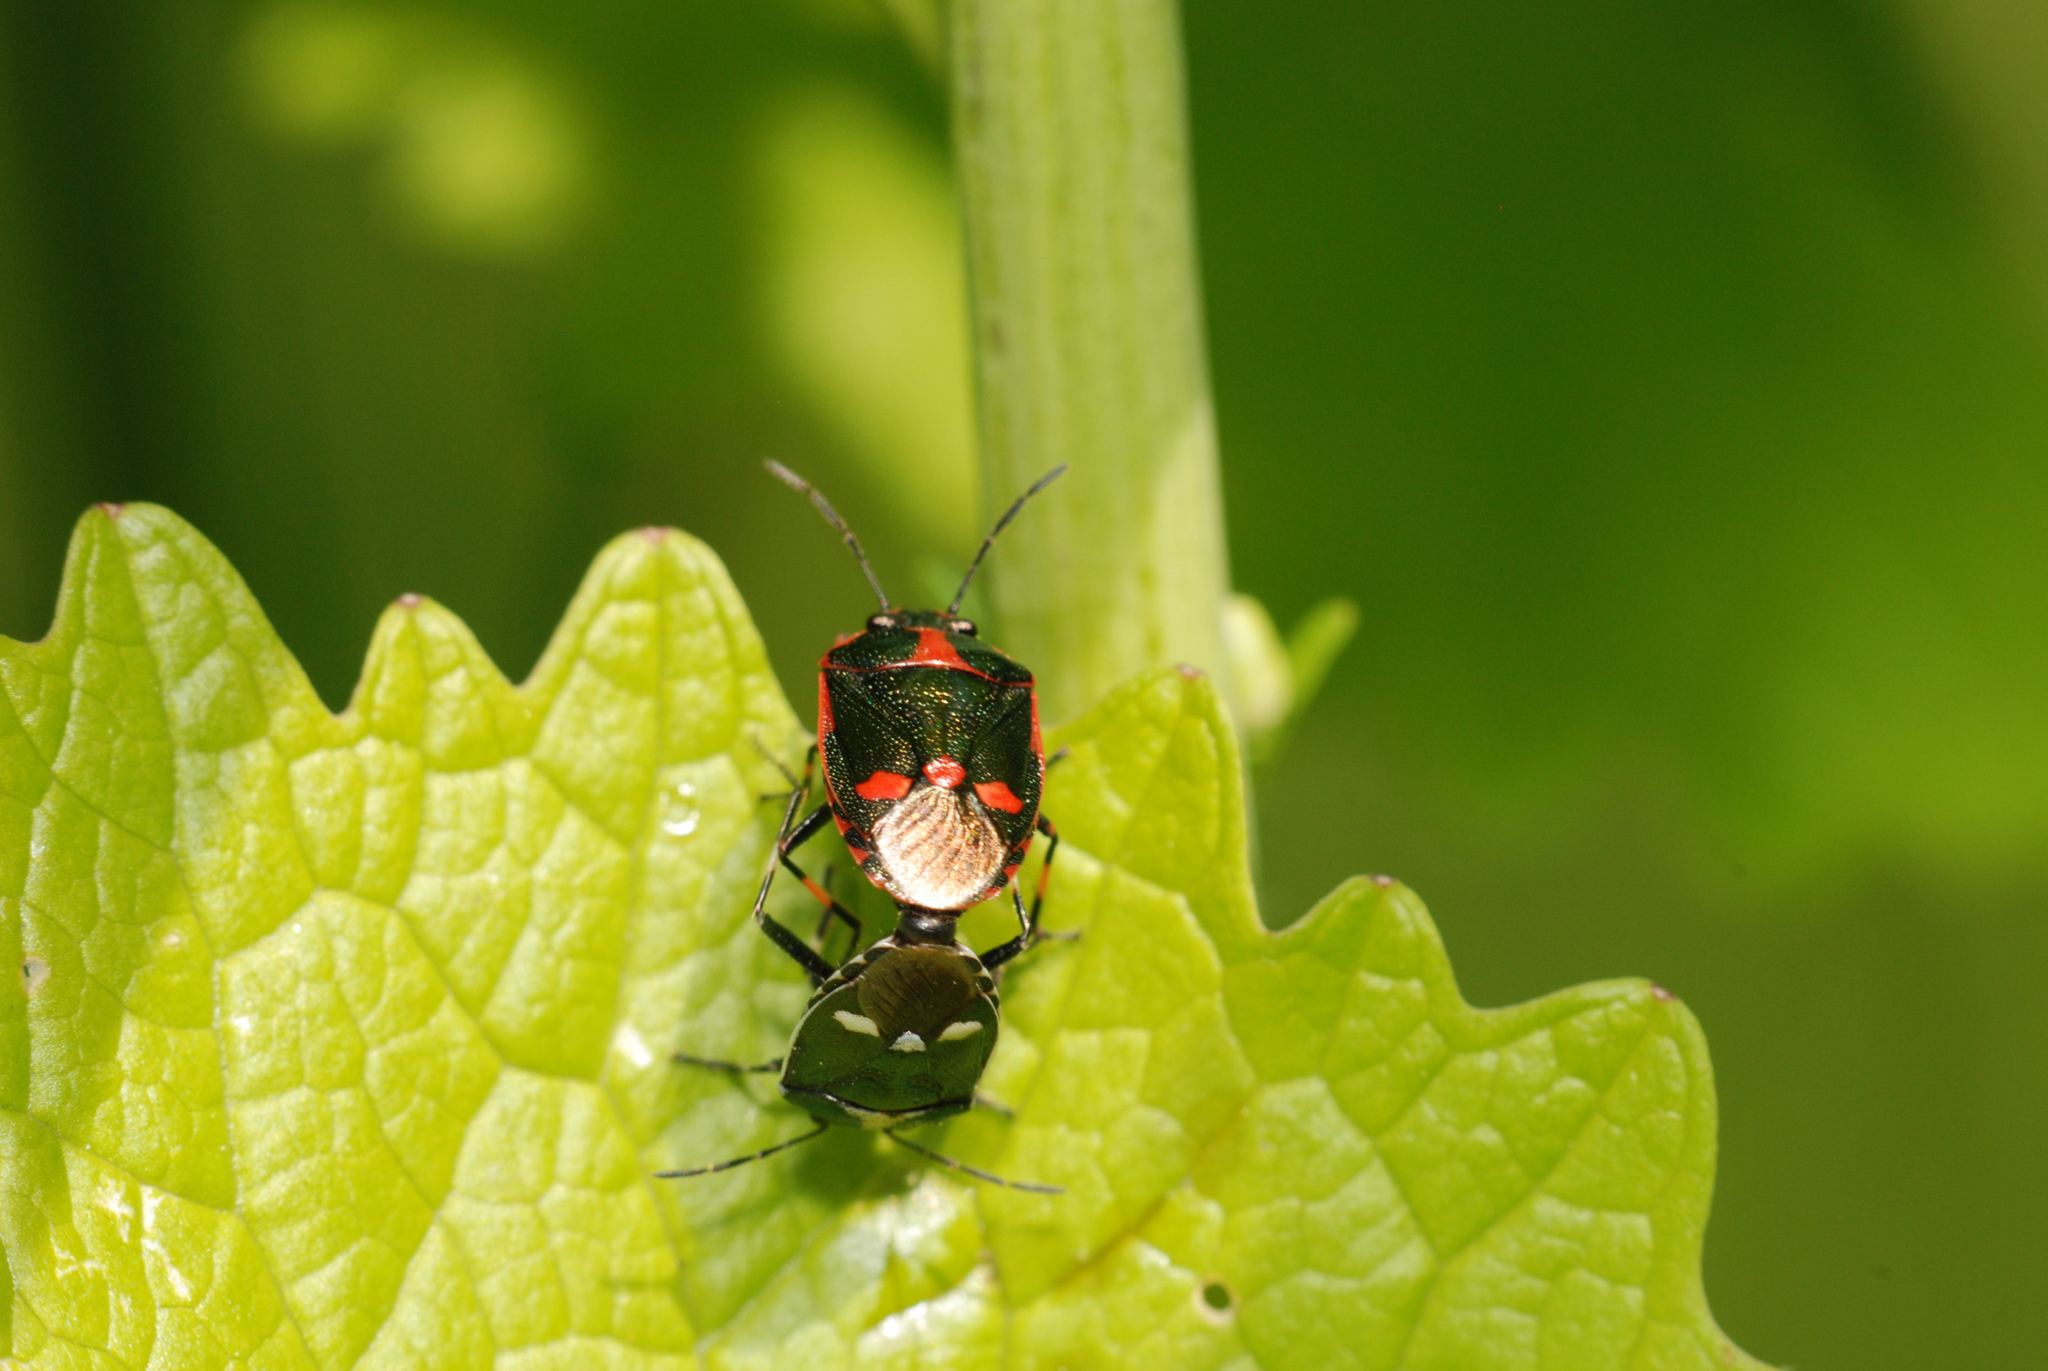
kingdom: Animalia
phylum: Arthropoda
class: Insecta
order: Hemiptera
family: Pentatomidae
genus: Eurydema
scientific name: Eurydema oleracea
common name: Cabbage bug
